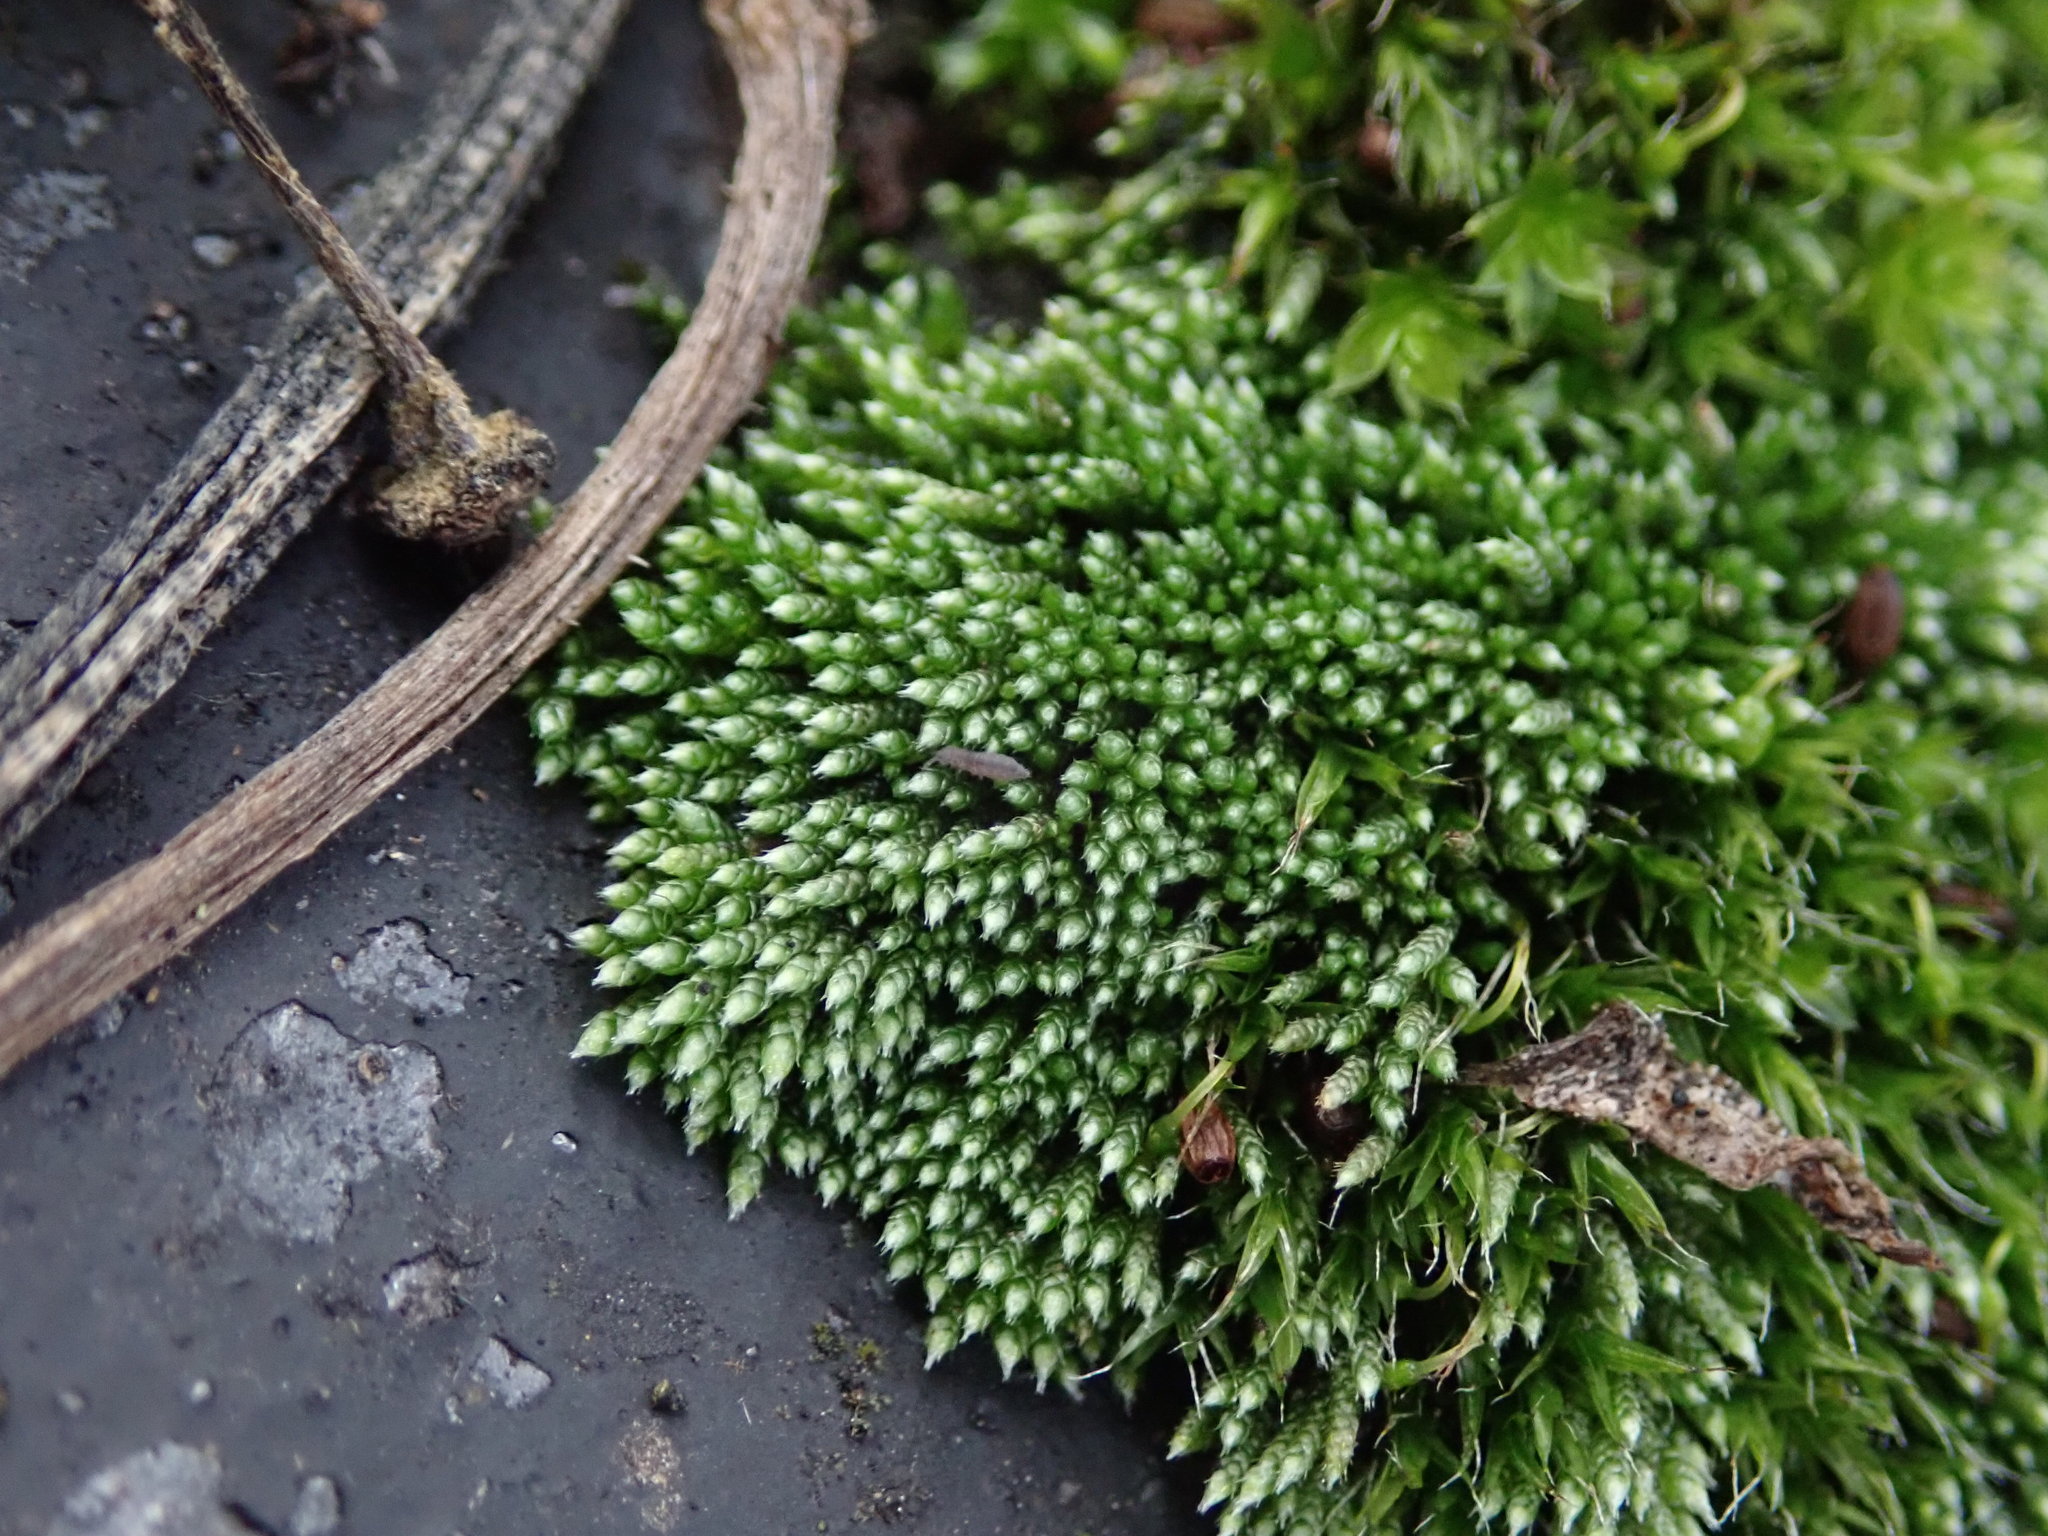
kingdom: Plantae
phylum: Bryophyta
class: Bryopsida
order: Bryales
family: Bryaceae
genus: Bryum
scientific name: Bryum argenteum
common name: Silver-moss
